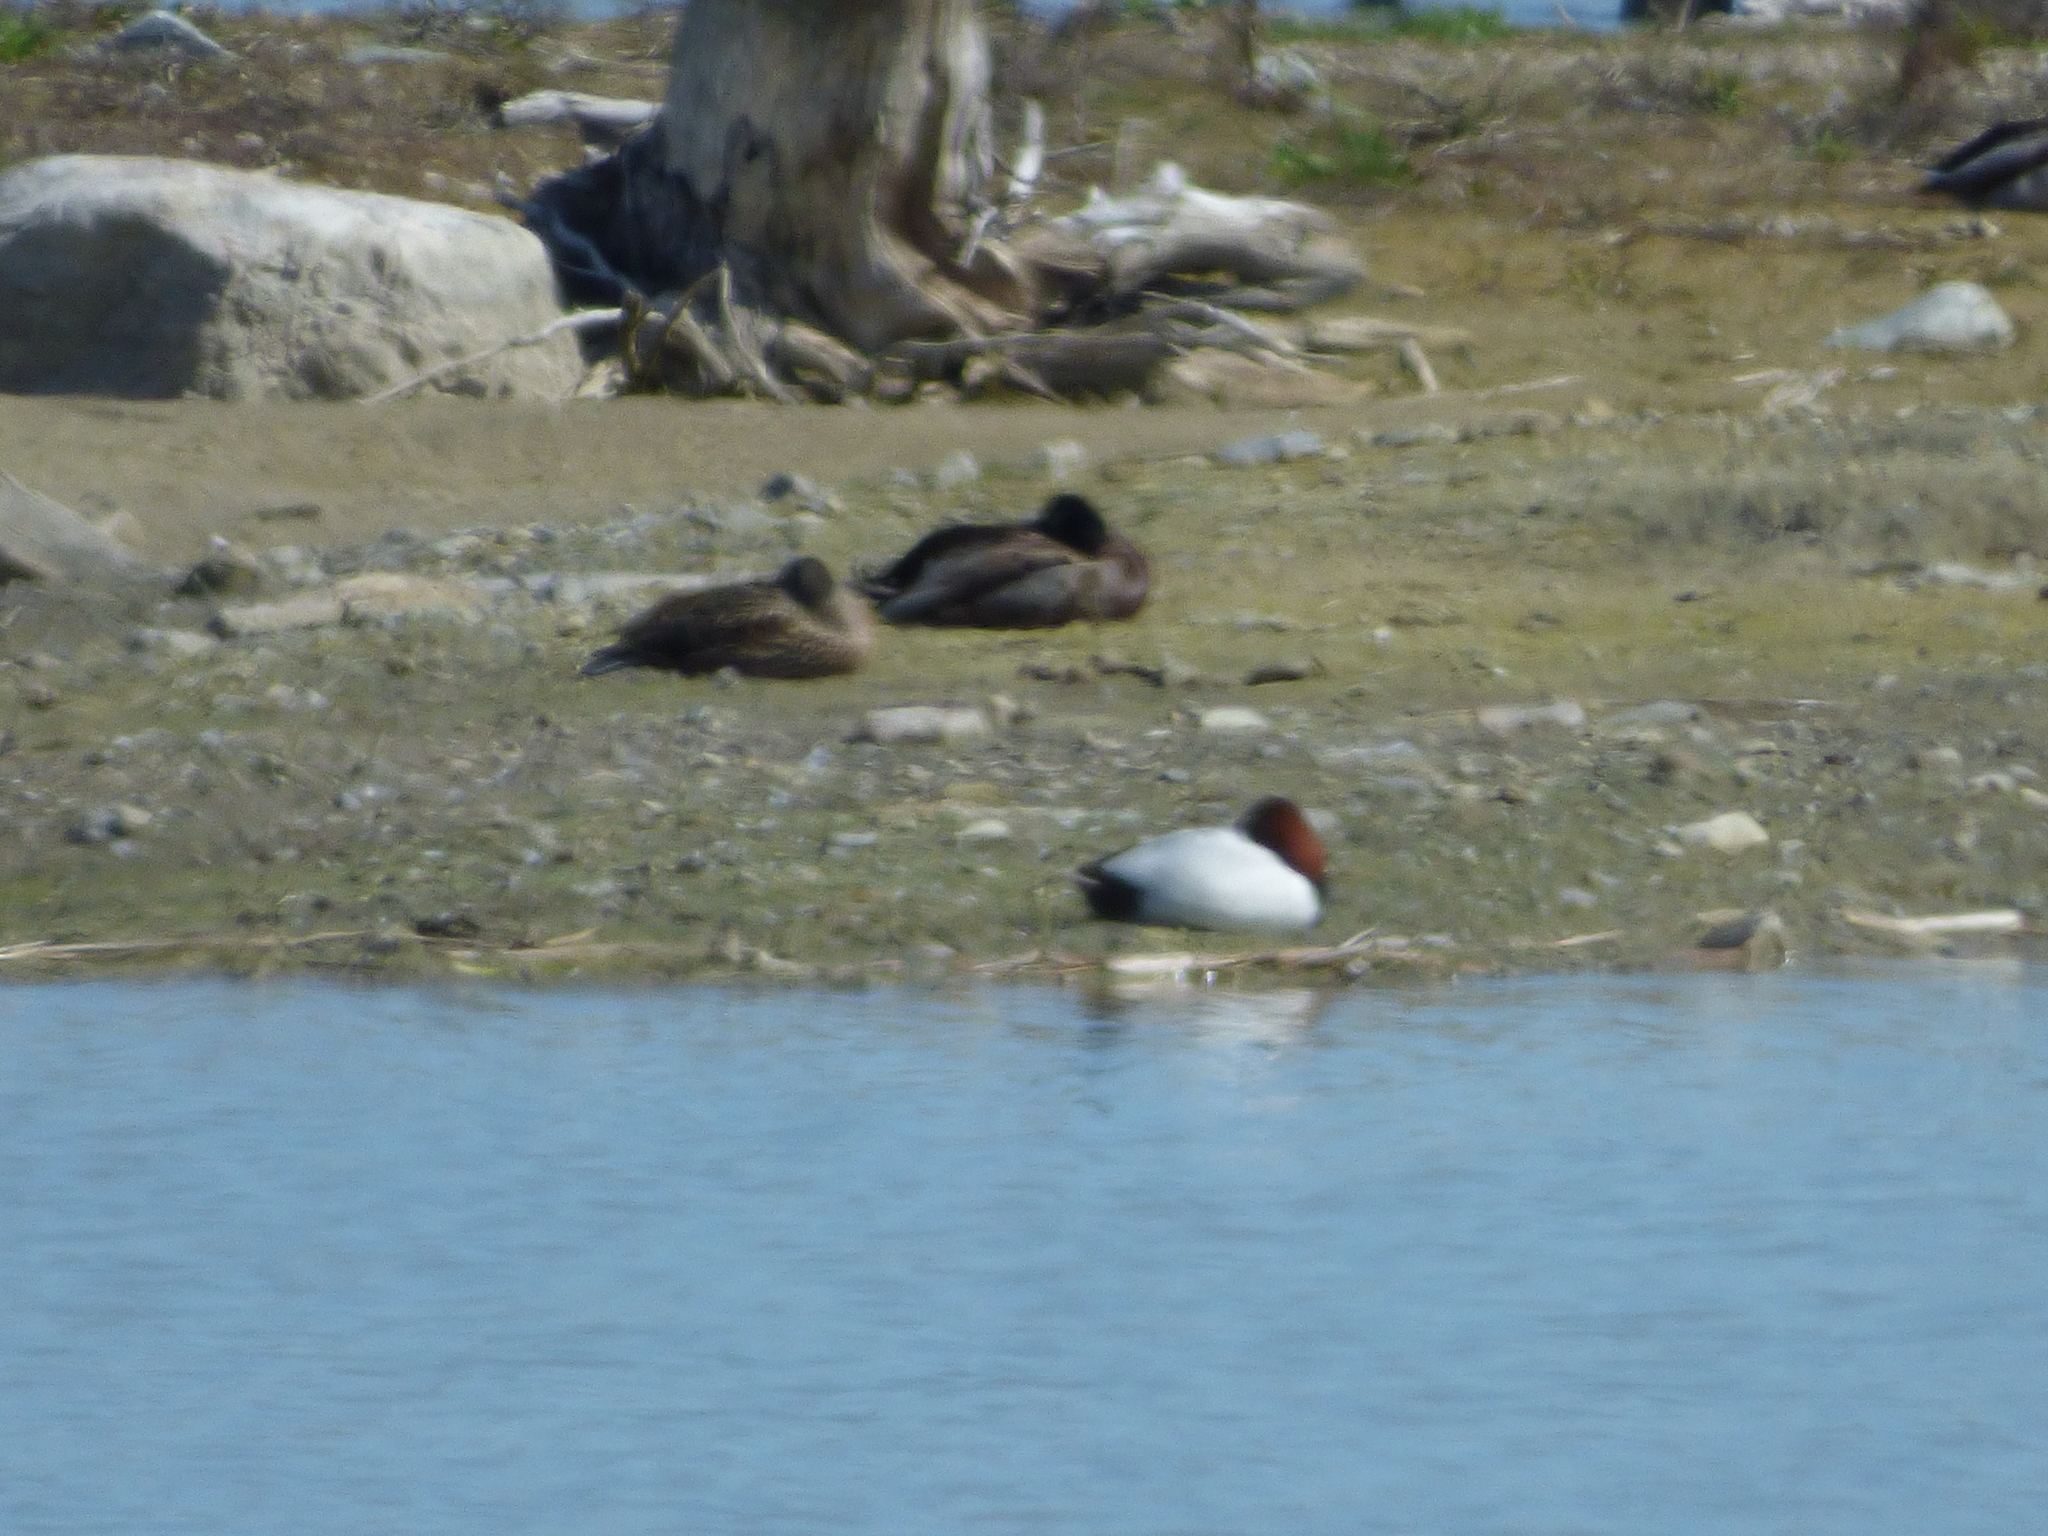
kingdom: Animalia
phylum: Chordata
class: Aves
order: Anseriformes
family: Anatidae
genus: Aythya
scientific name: Aythya valisineria
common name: Canvasback
